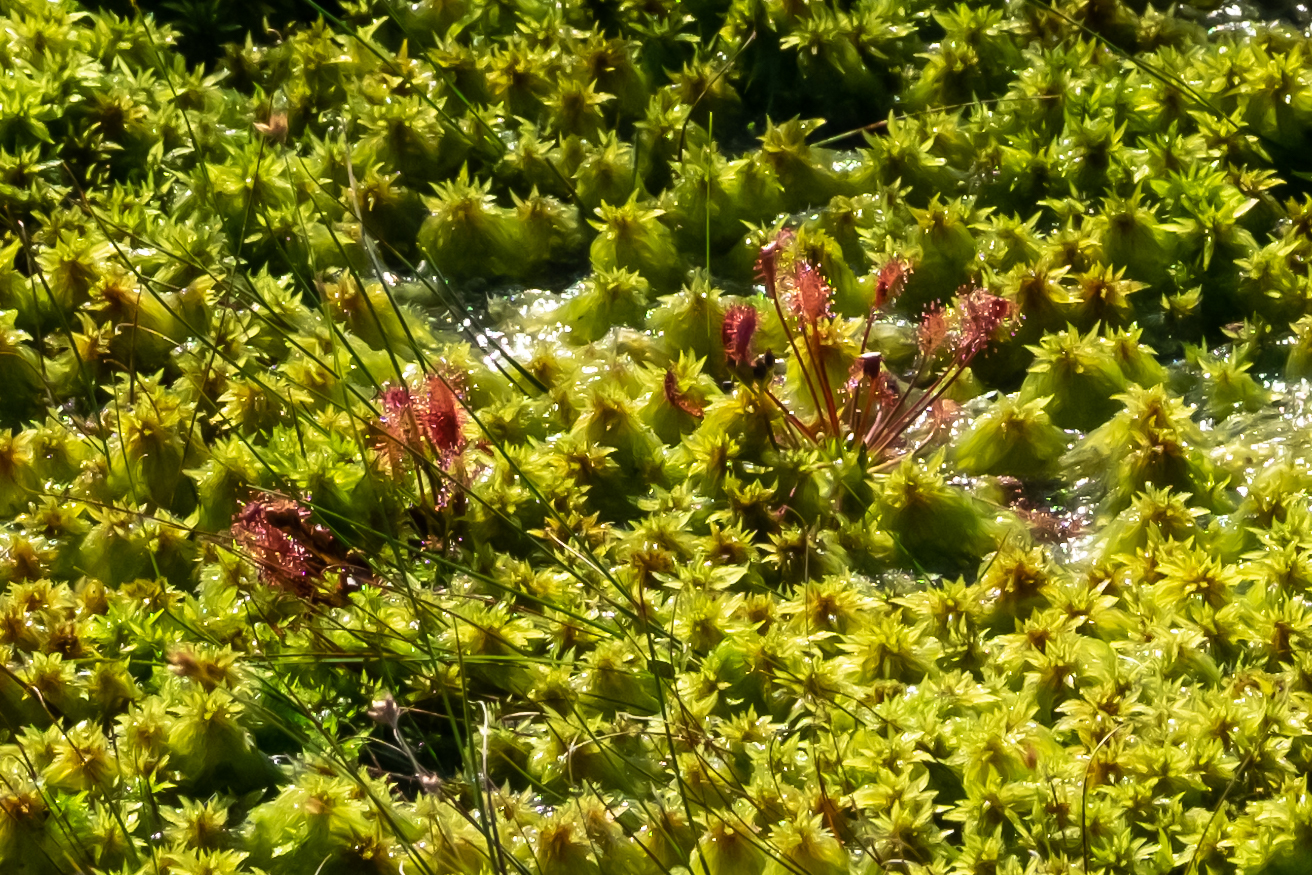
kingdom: Plantae
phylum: Tracheophyta
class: Magnoliopsida
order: Caryophyllales
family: Droseraceae
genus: Drosera
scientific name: Drosera intermedia
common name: Oblong-leaved sundew
